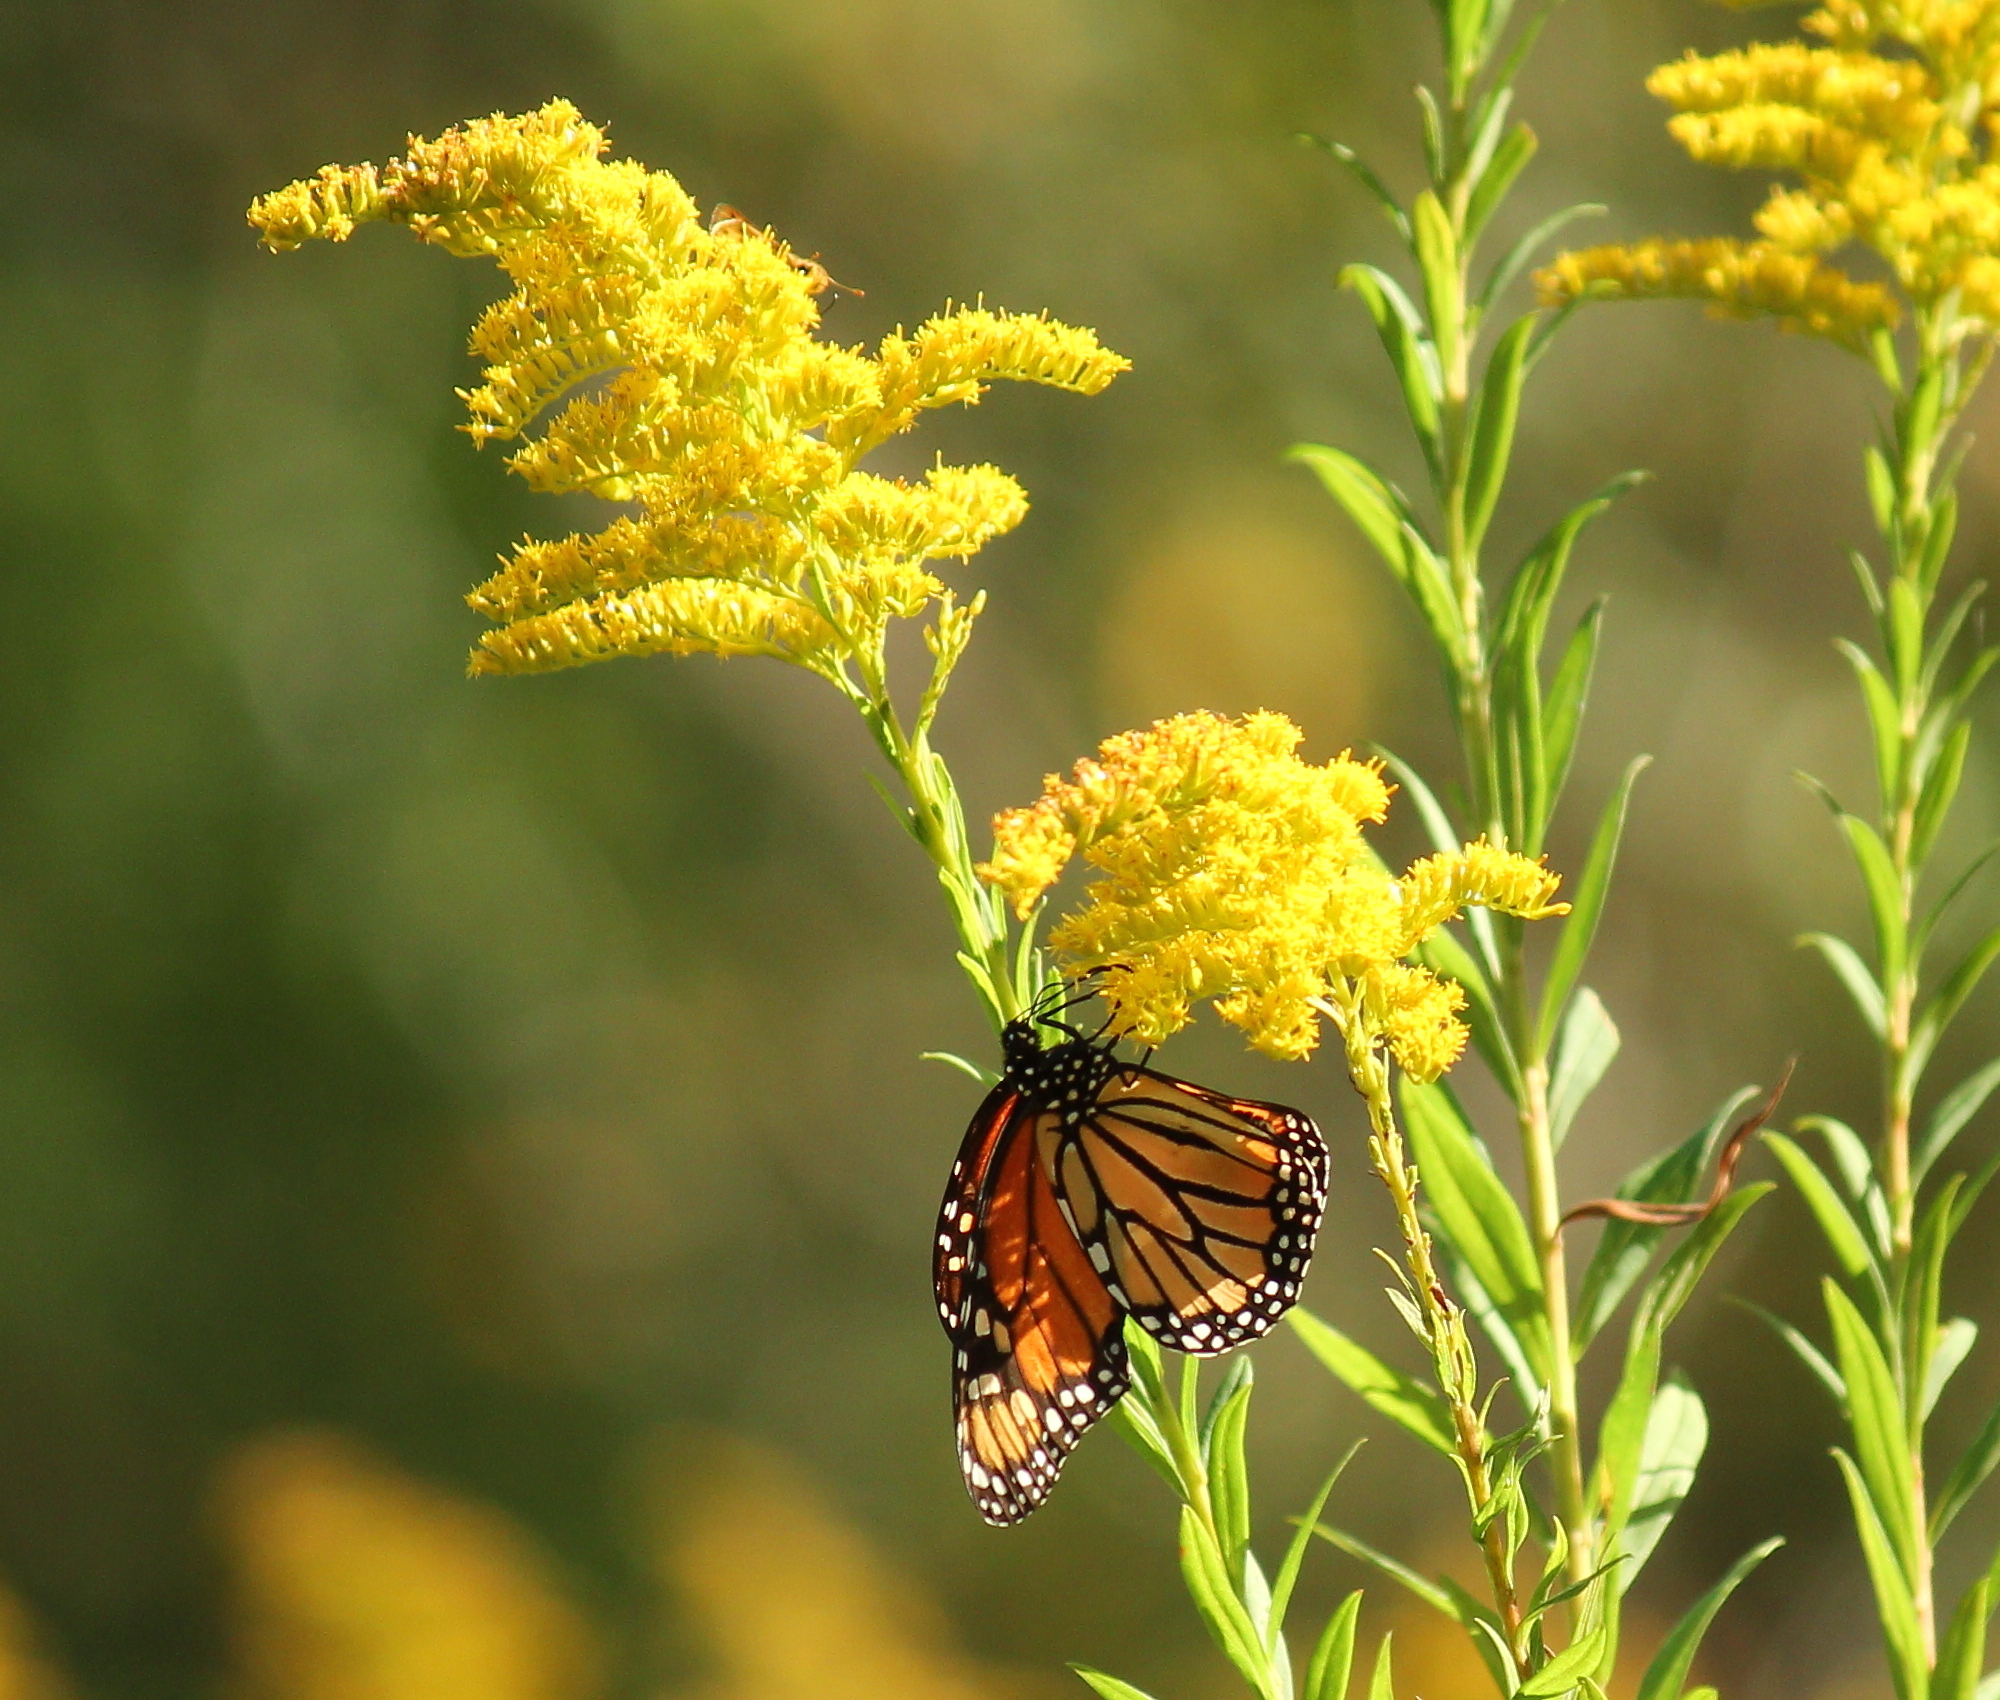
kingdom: Animalia
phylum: Arthropoda
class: Insecta
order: Lepidoptera
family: Nymphalidae
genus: Danaus
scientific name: Danaus plexippus
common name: Monarch
